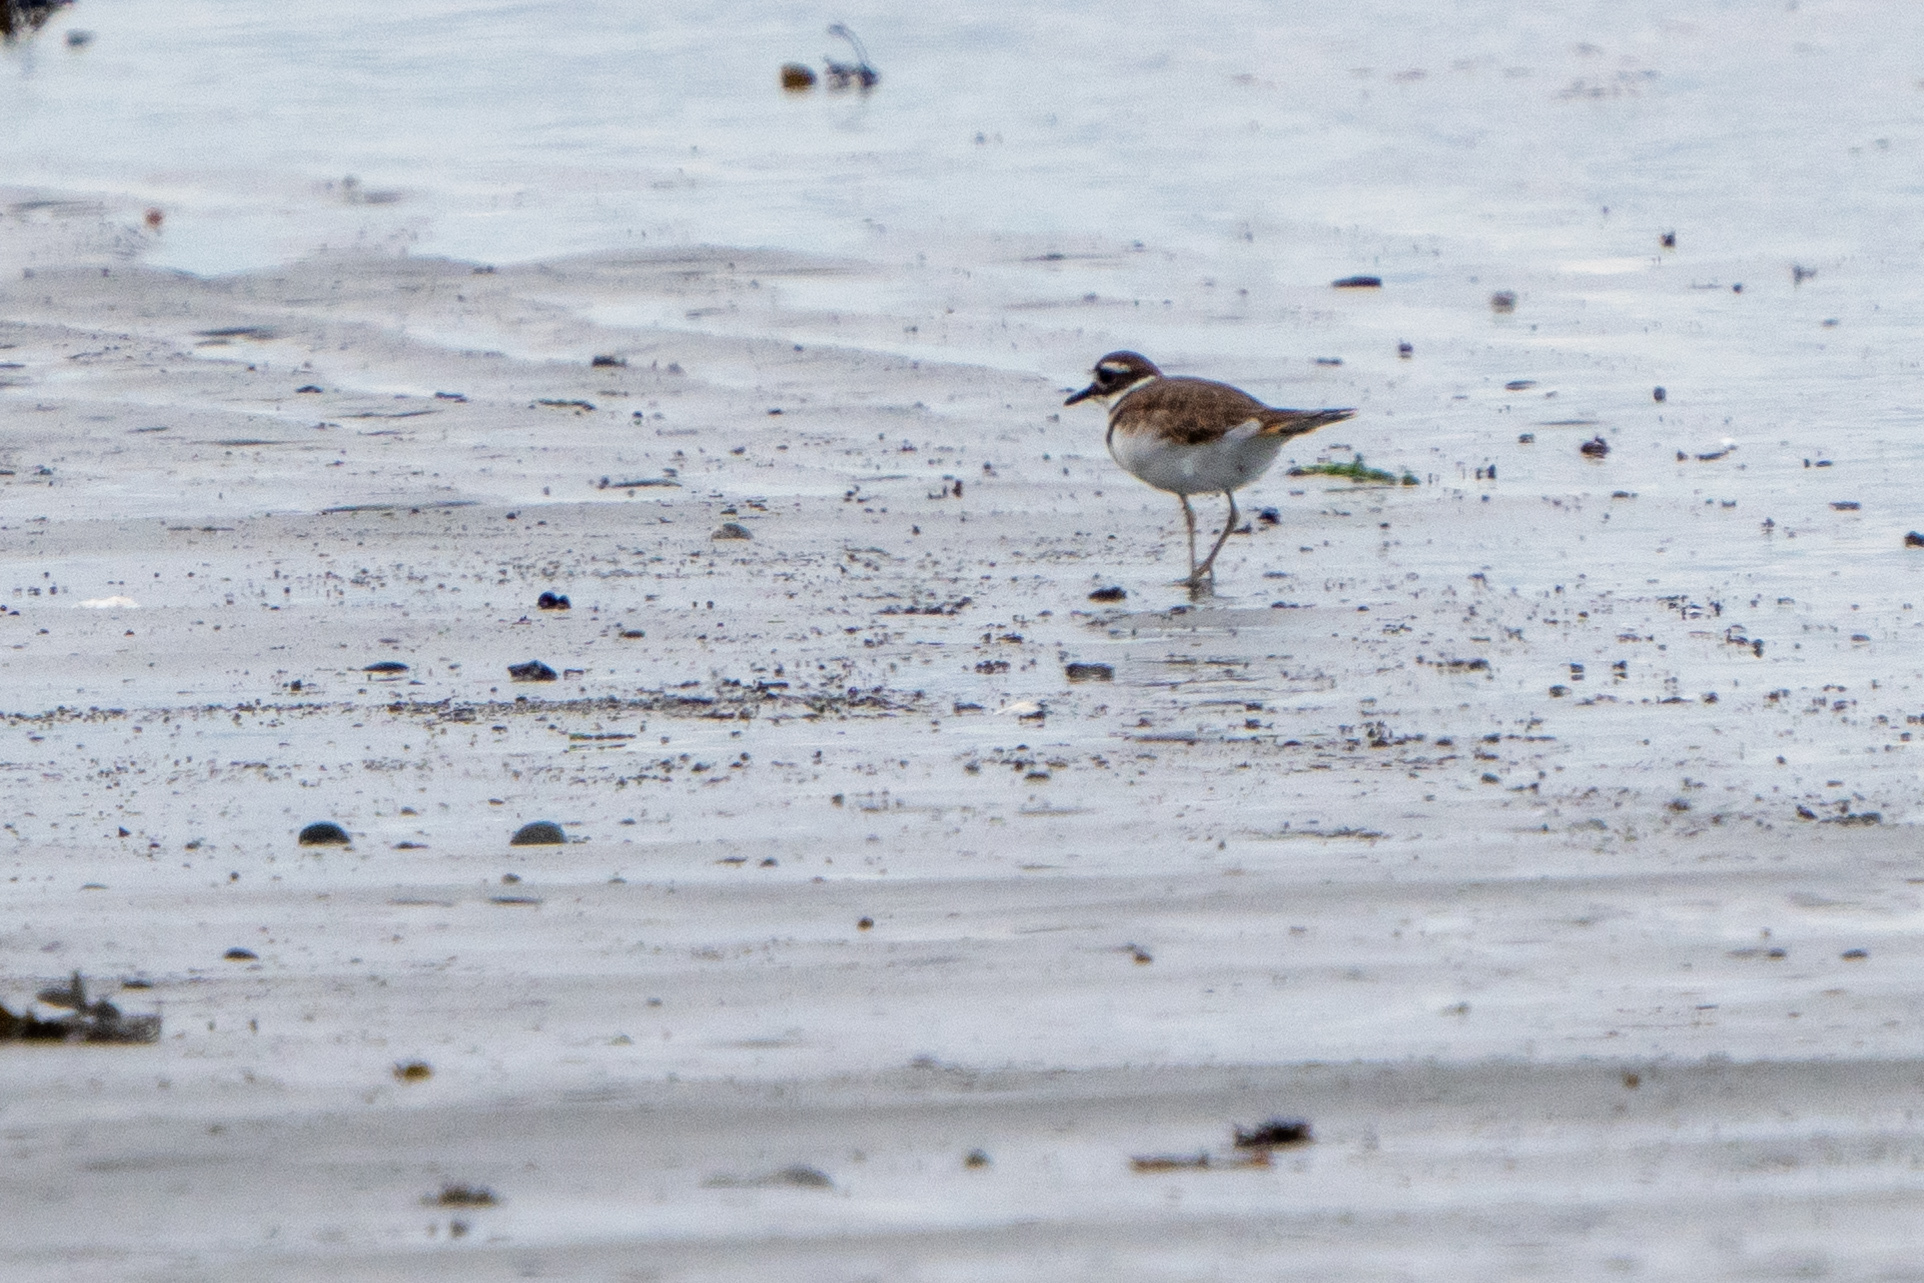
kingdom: Animalia
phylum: Chordata
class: Aves
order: Charadriiformes
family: Charadriidae
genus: Charadrius
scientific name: Charadrius vociferus
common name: Killdeer
